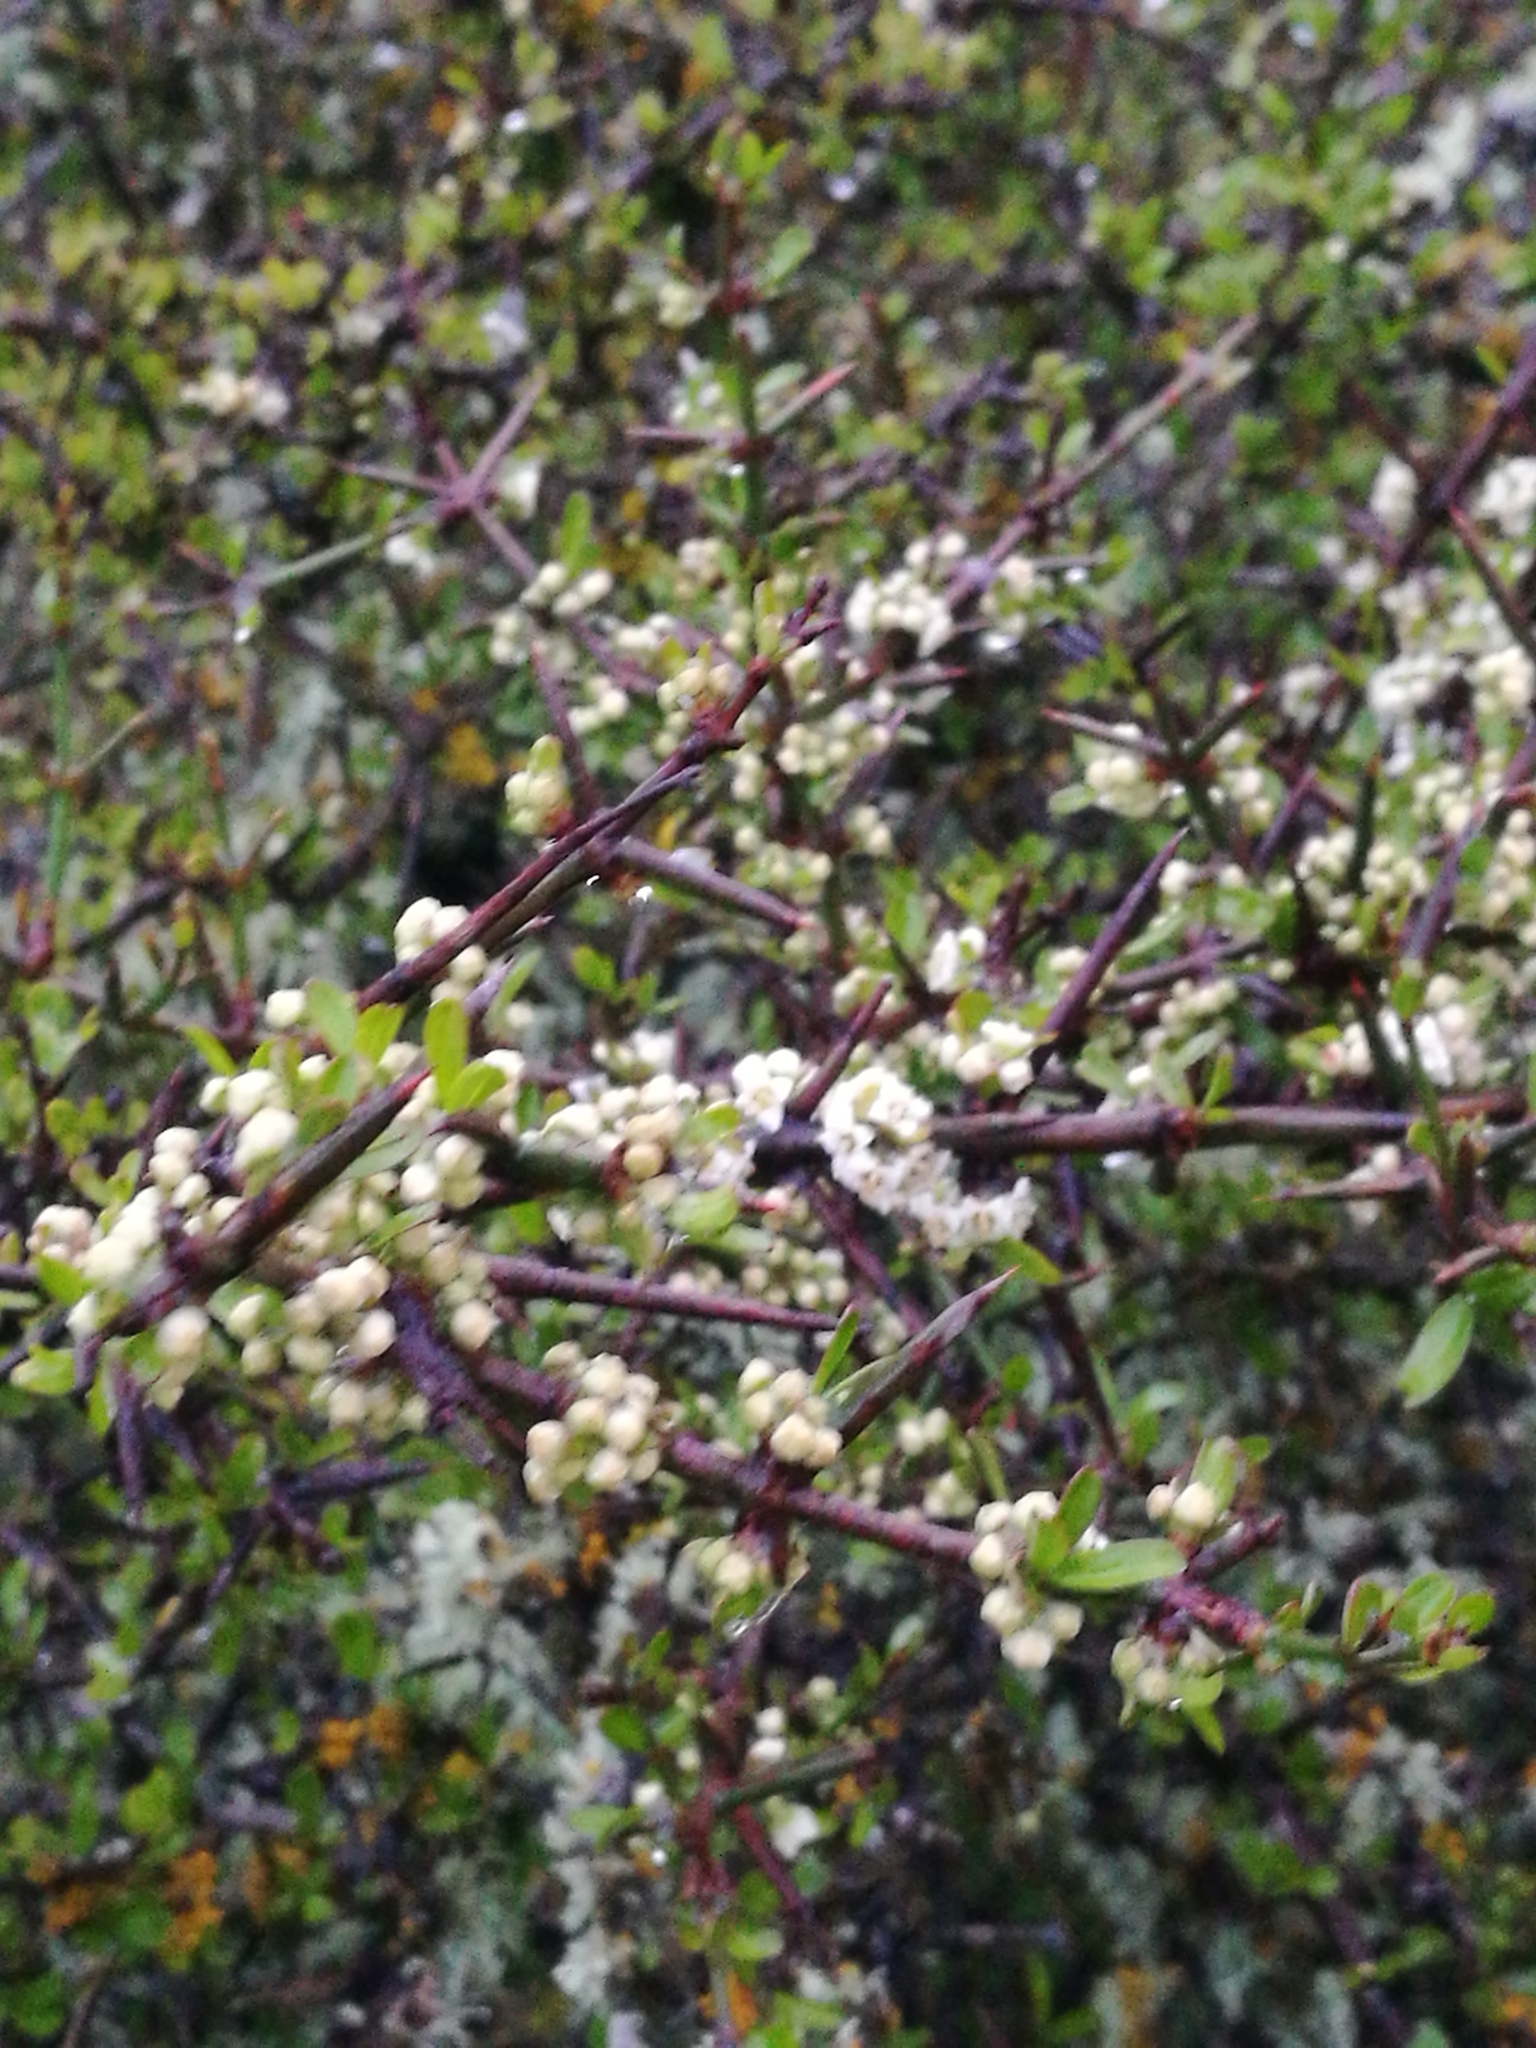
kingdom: Plantae
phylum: Tracheophyta
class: Magnoliopsida
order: Rosales
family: Rhamnaceae
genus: Discaria
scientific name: Discaria toumatou
